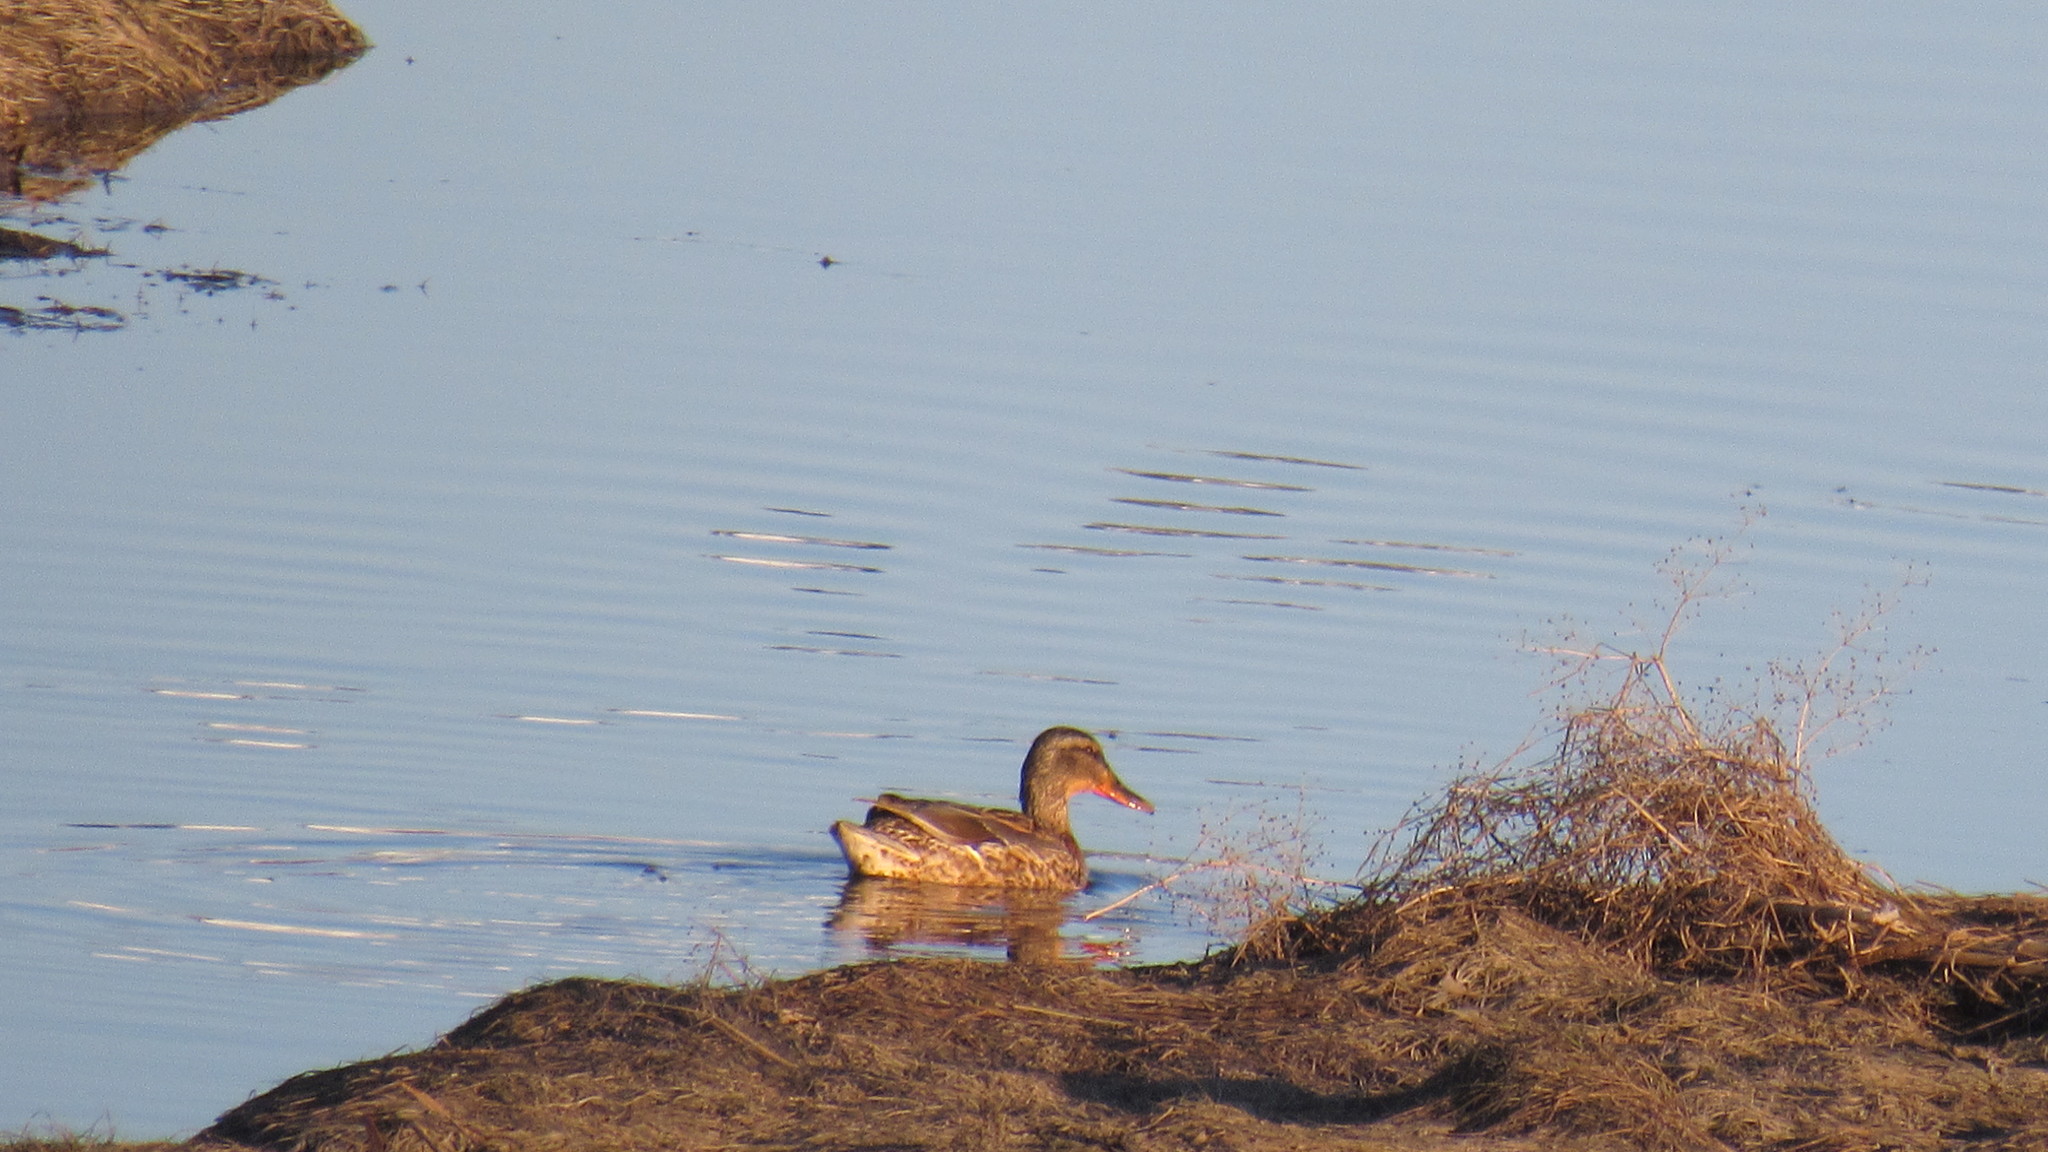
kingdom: Animalia
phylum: Chordata
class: Aves
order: Anseriformes
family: Anatidae
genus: Anas
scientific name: Anas platyrhynchos
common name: Mallard
